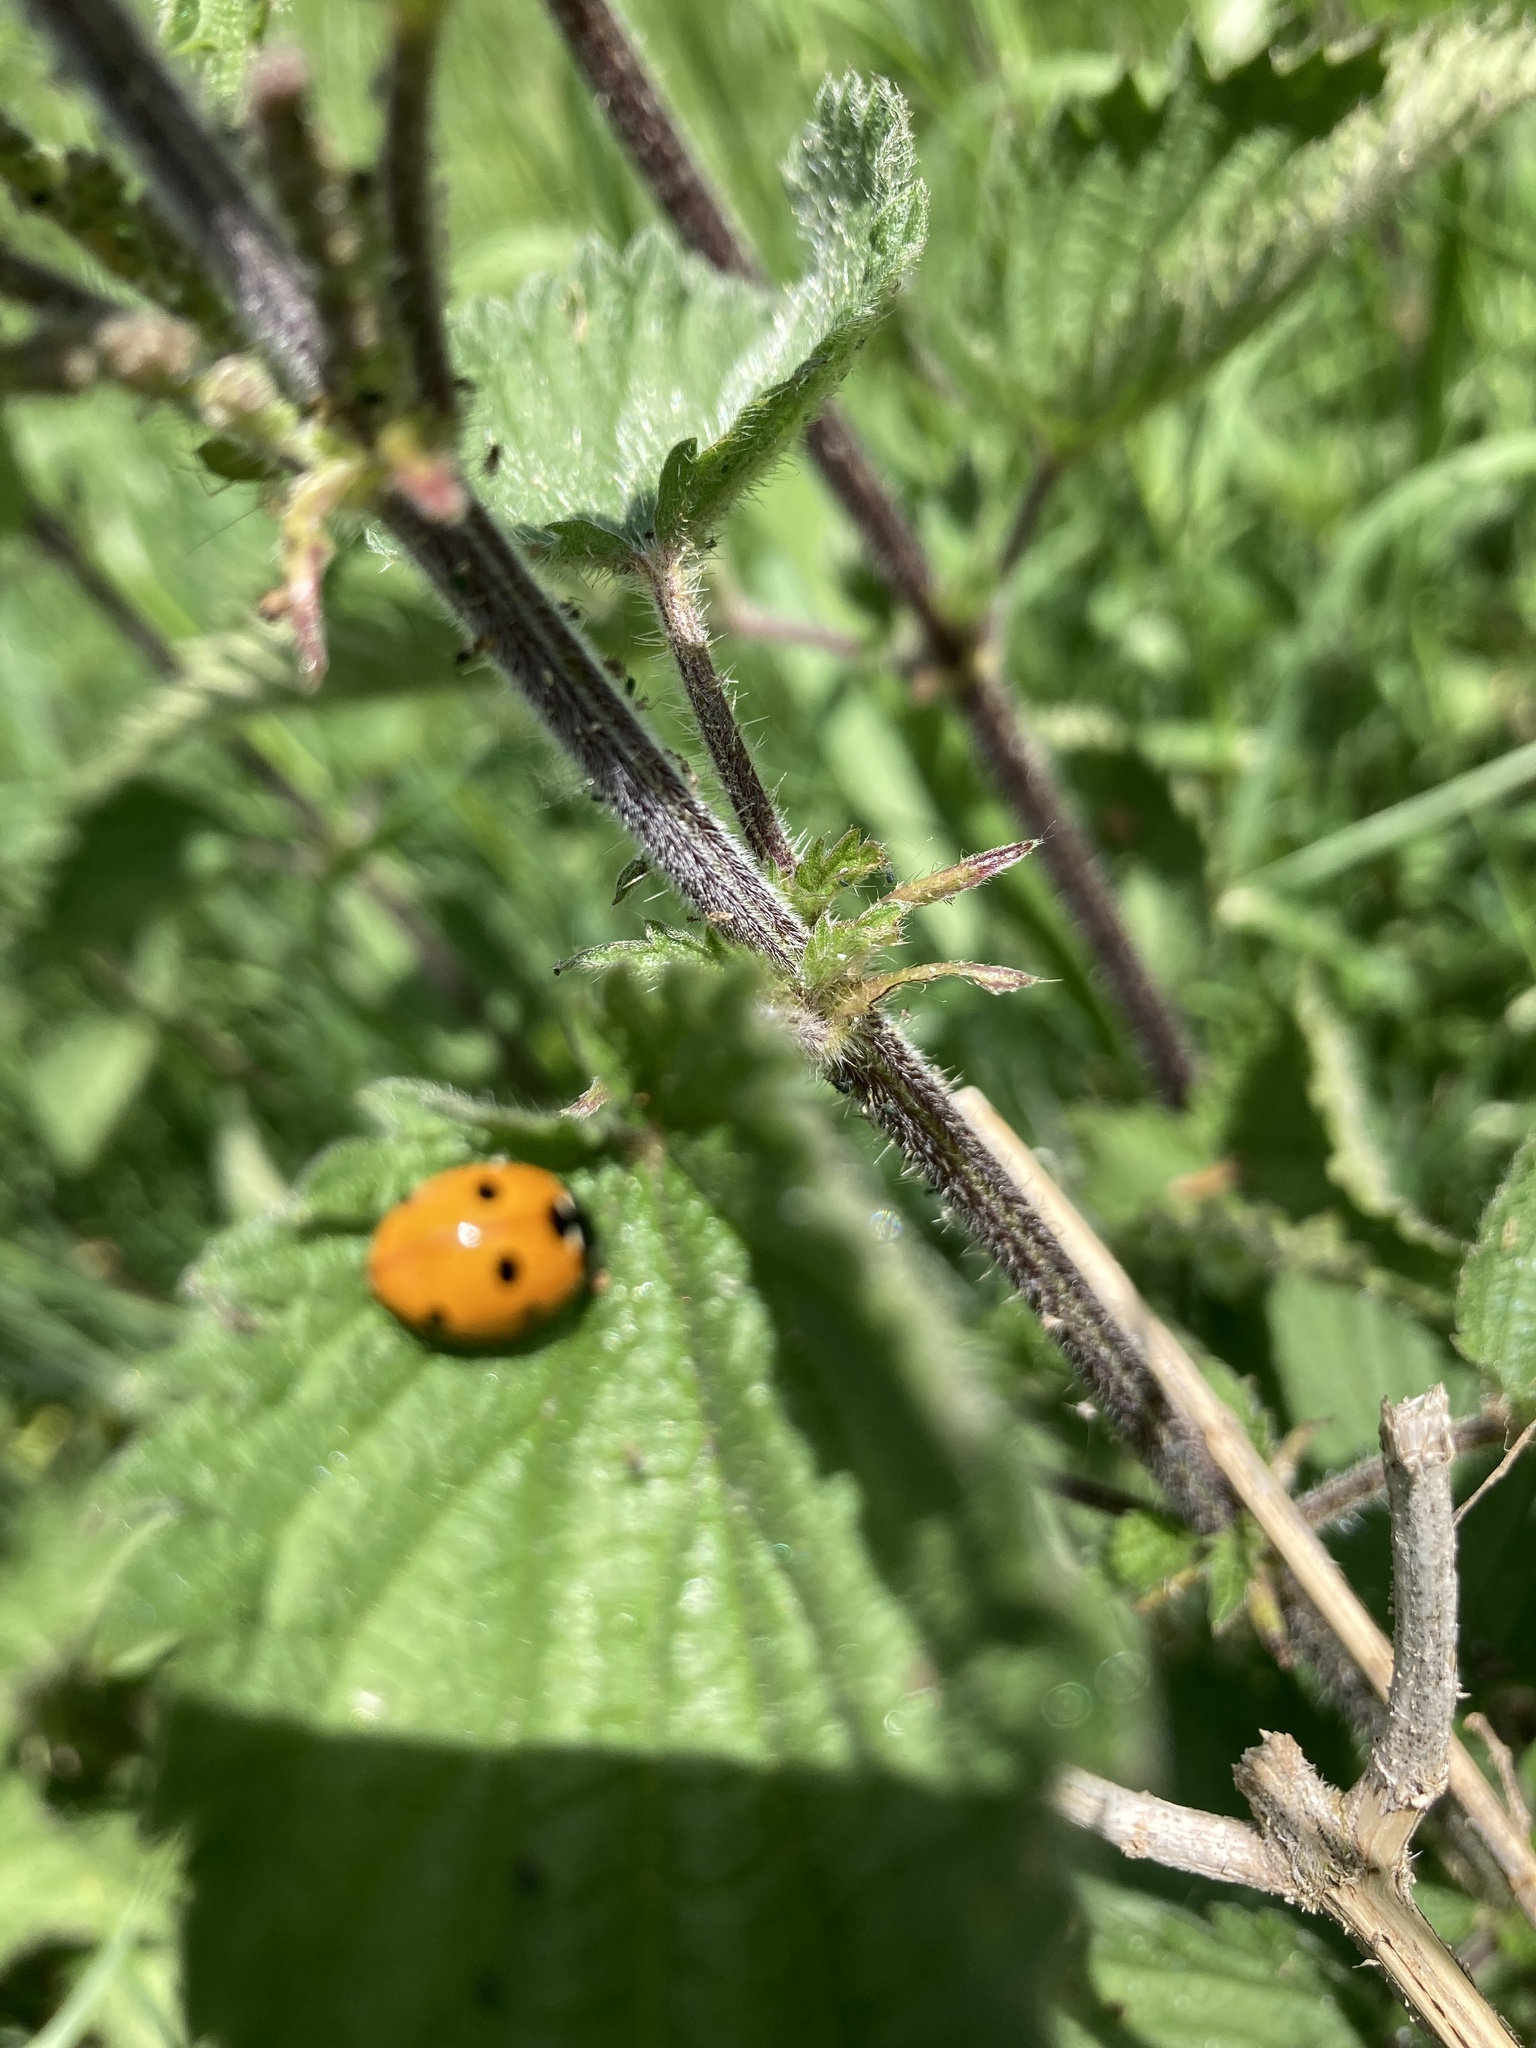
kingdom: Animalia
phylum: Arthropoda
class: Insecta
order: Coleoptera
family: Coccinellidae
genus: Coccinella
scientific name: Coccinella septempunctata
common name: Sevenspotted lady beetle
